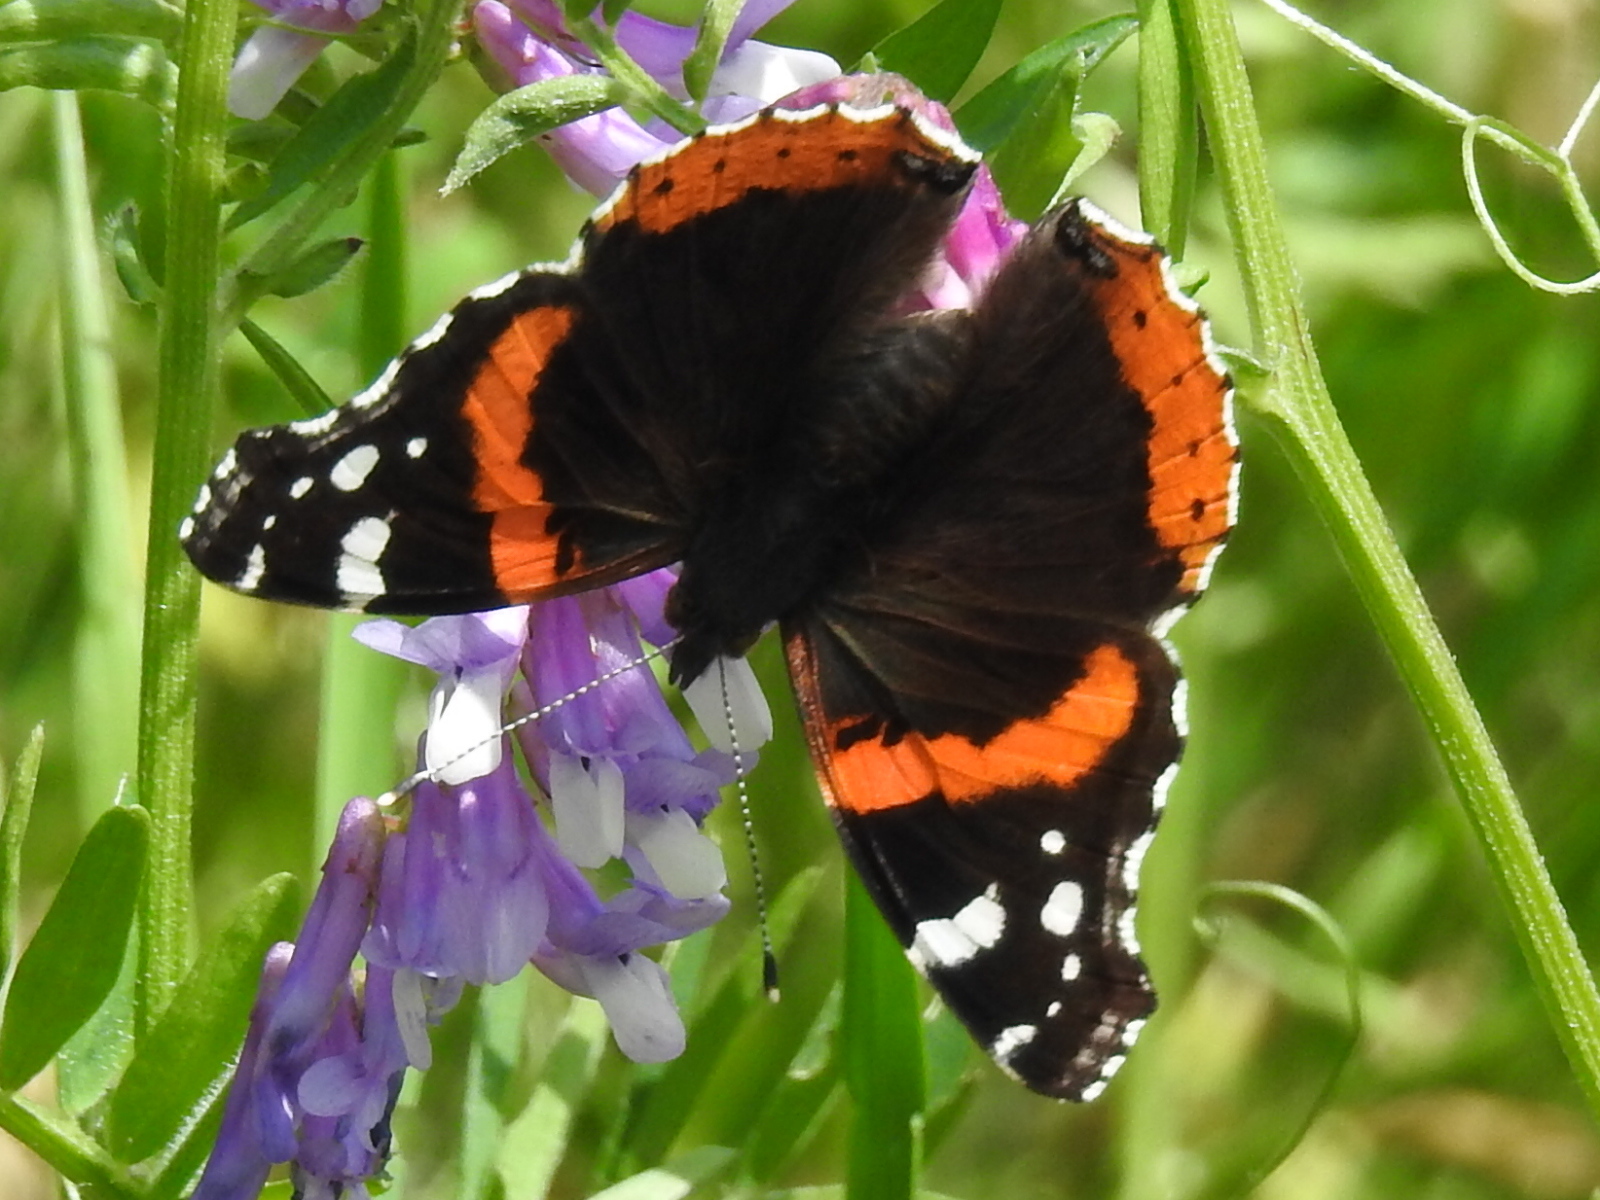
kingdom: Animalia
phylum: Arthropoda
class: Insecta
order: Lepidoptera
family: Nymphalidae
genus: Vanessa
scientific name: Vanessa atalanta
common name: Red admiral
